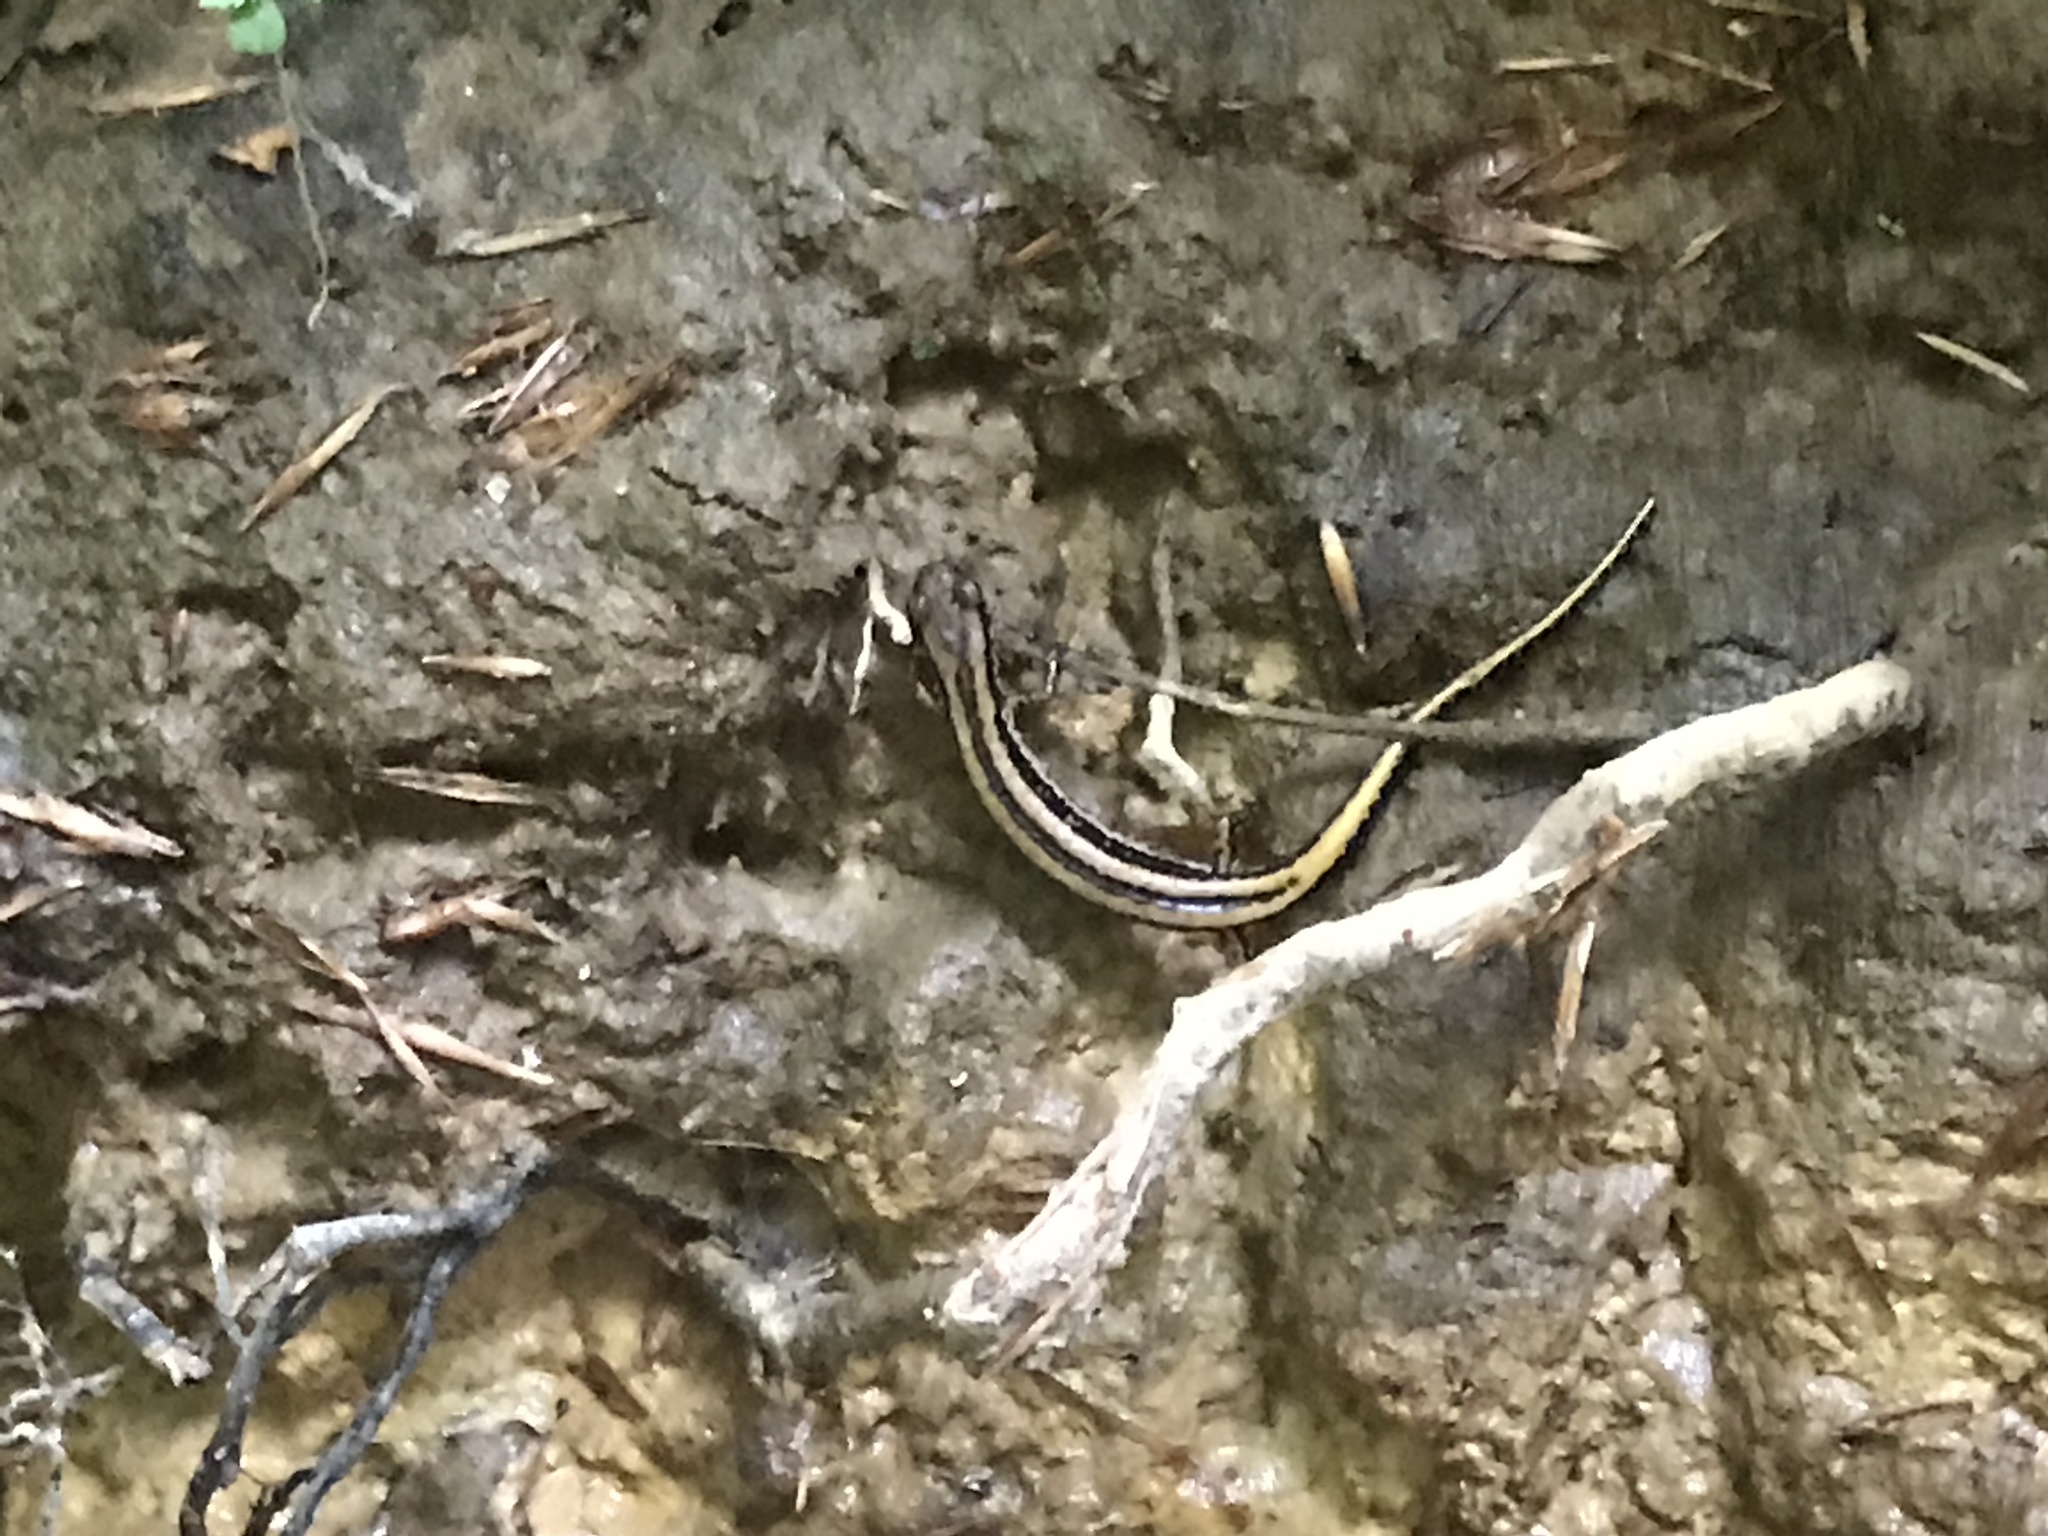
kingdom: Animalia
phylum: Chordata
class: Amphibia
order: Caudata
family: Plethodontidae
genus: Eurycea
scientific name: Eurycea guttolineata
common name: Three-lined salamander
